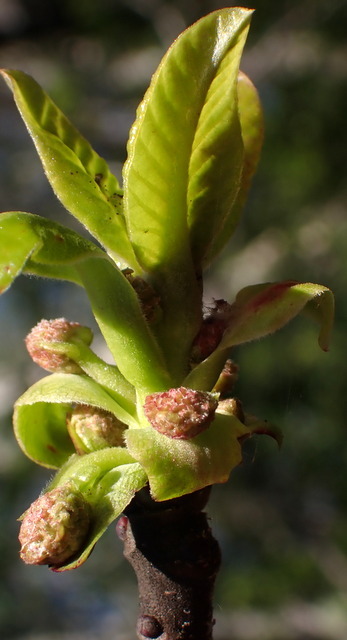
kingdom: Plantae
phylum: Tracheophyta
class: Magnoliopsida
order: Cornales
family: Nyssaceae
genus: Nyssa
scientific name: Nyssa ogeche
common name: Ogeechee tupelo
